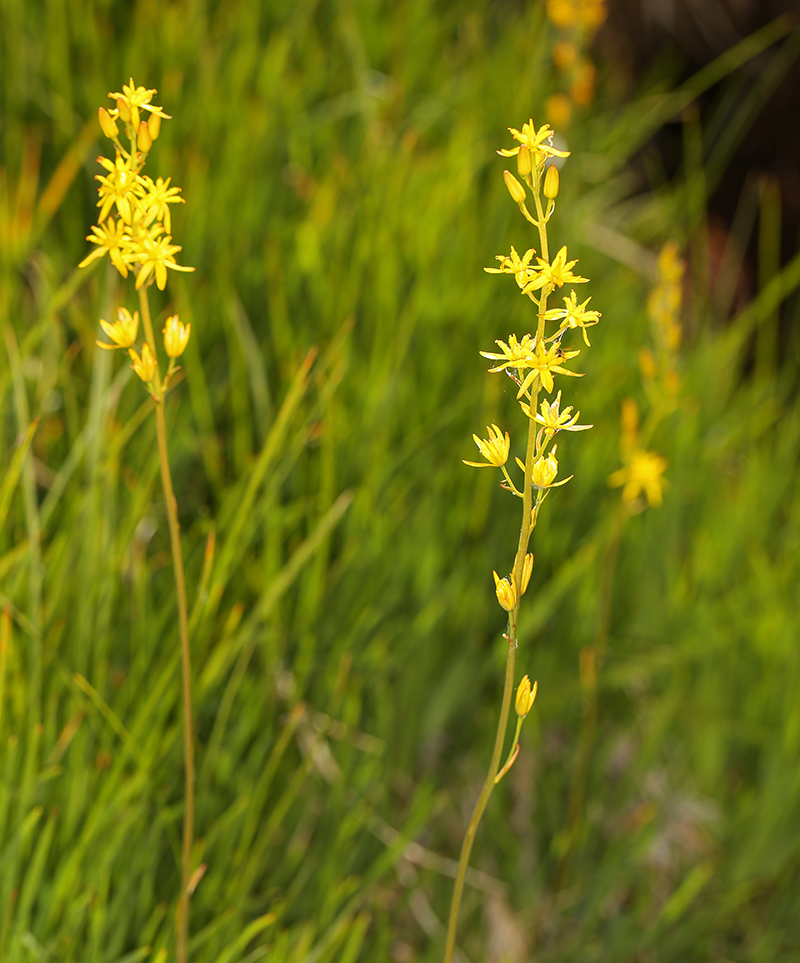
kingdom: Plantae
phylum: Tracheophyta
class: Liliopsida
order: Dioscoreales
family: Nartheciaceae
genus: Narthecium
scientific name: Narthecium californicum
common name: California bog-asphodel
